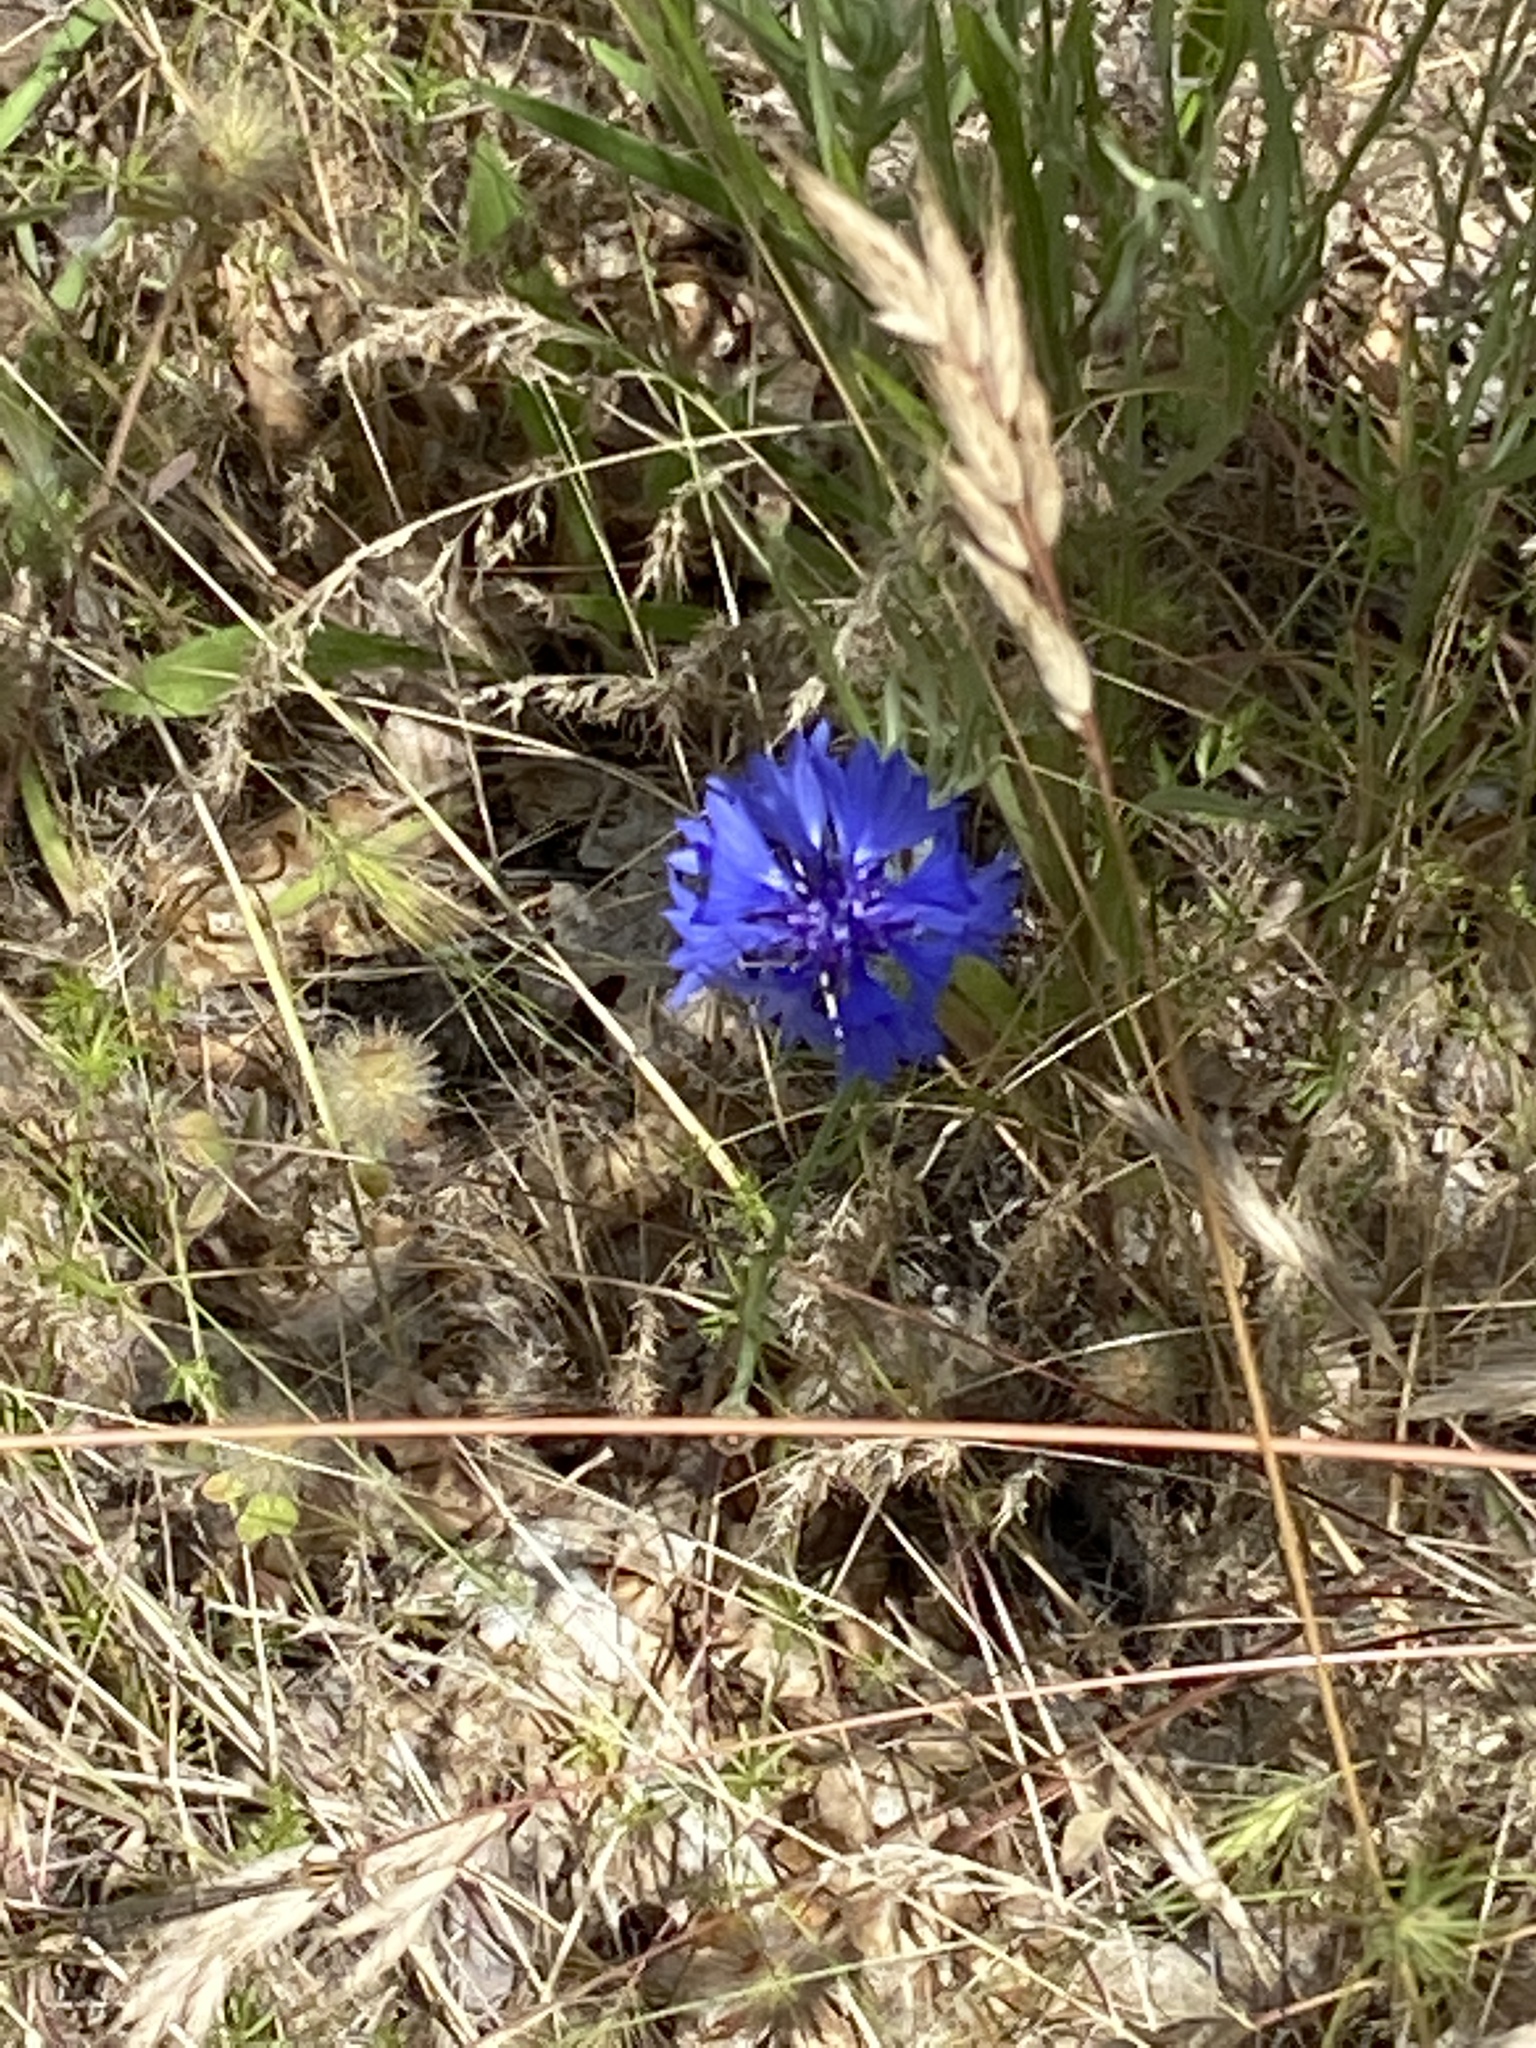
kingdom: Plantae
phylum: Tracheophyta
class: Magnoliopsida
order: Asterales
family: Asteraceae
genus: Centaurea
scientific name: Centaurea cyanus
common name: Cornflower
